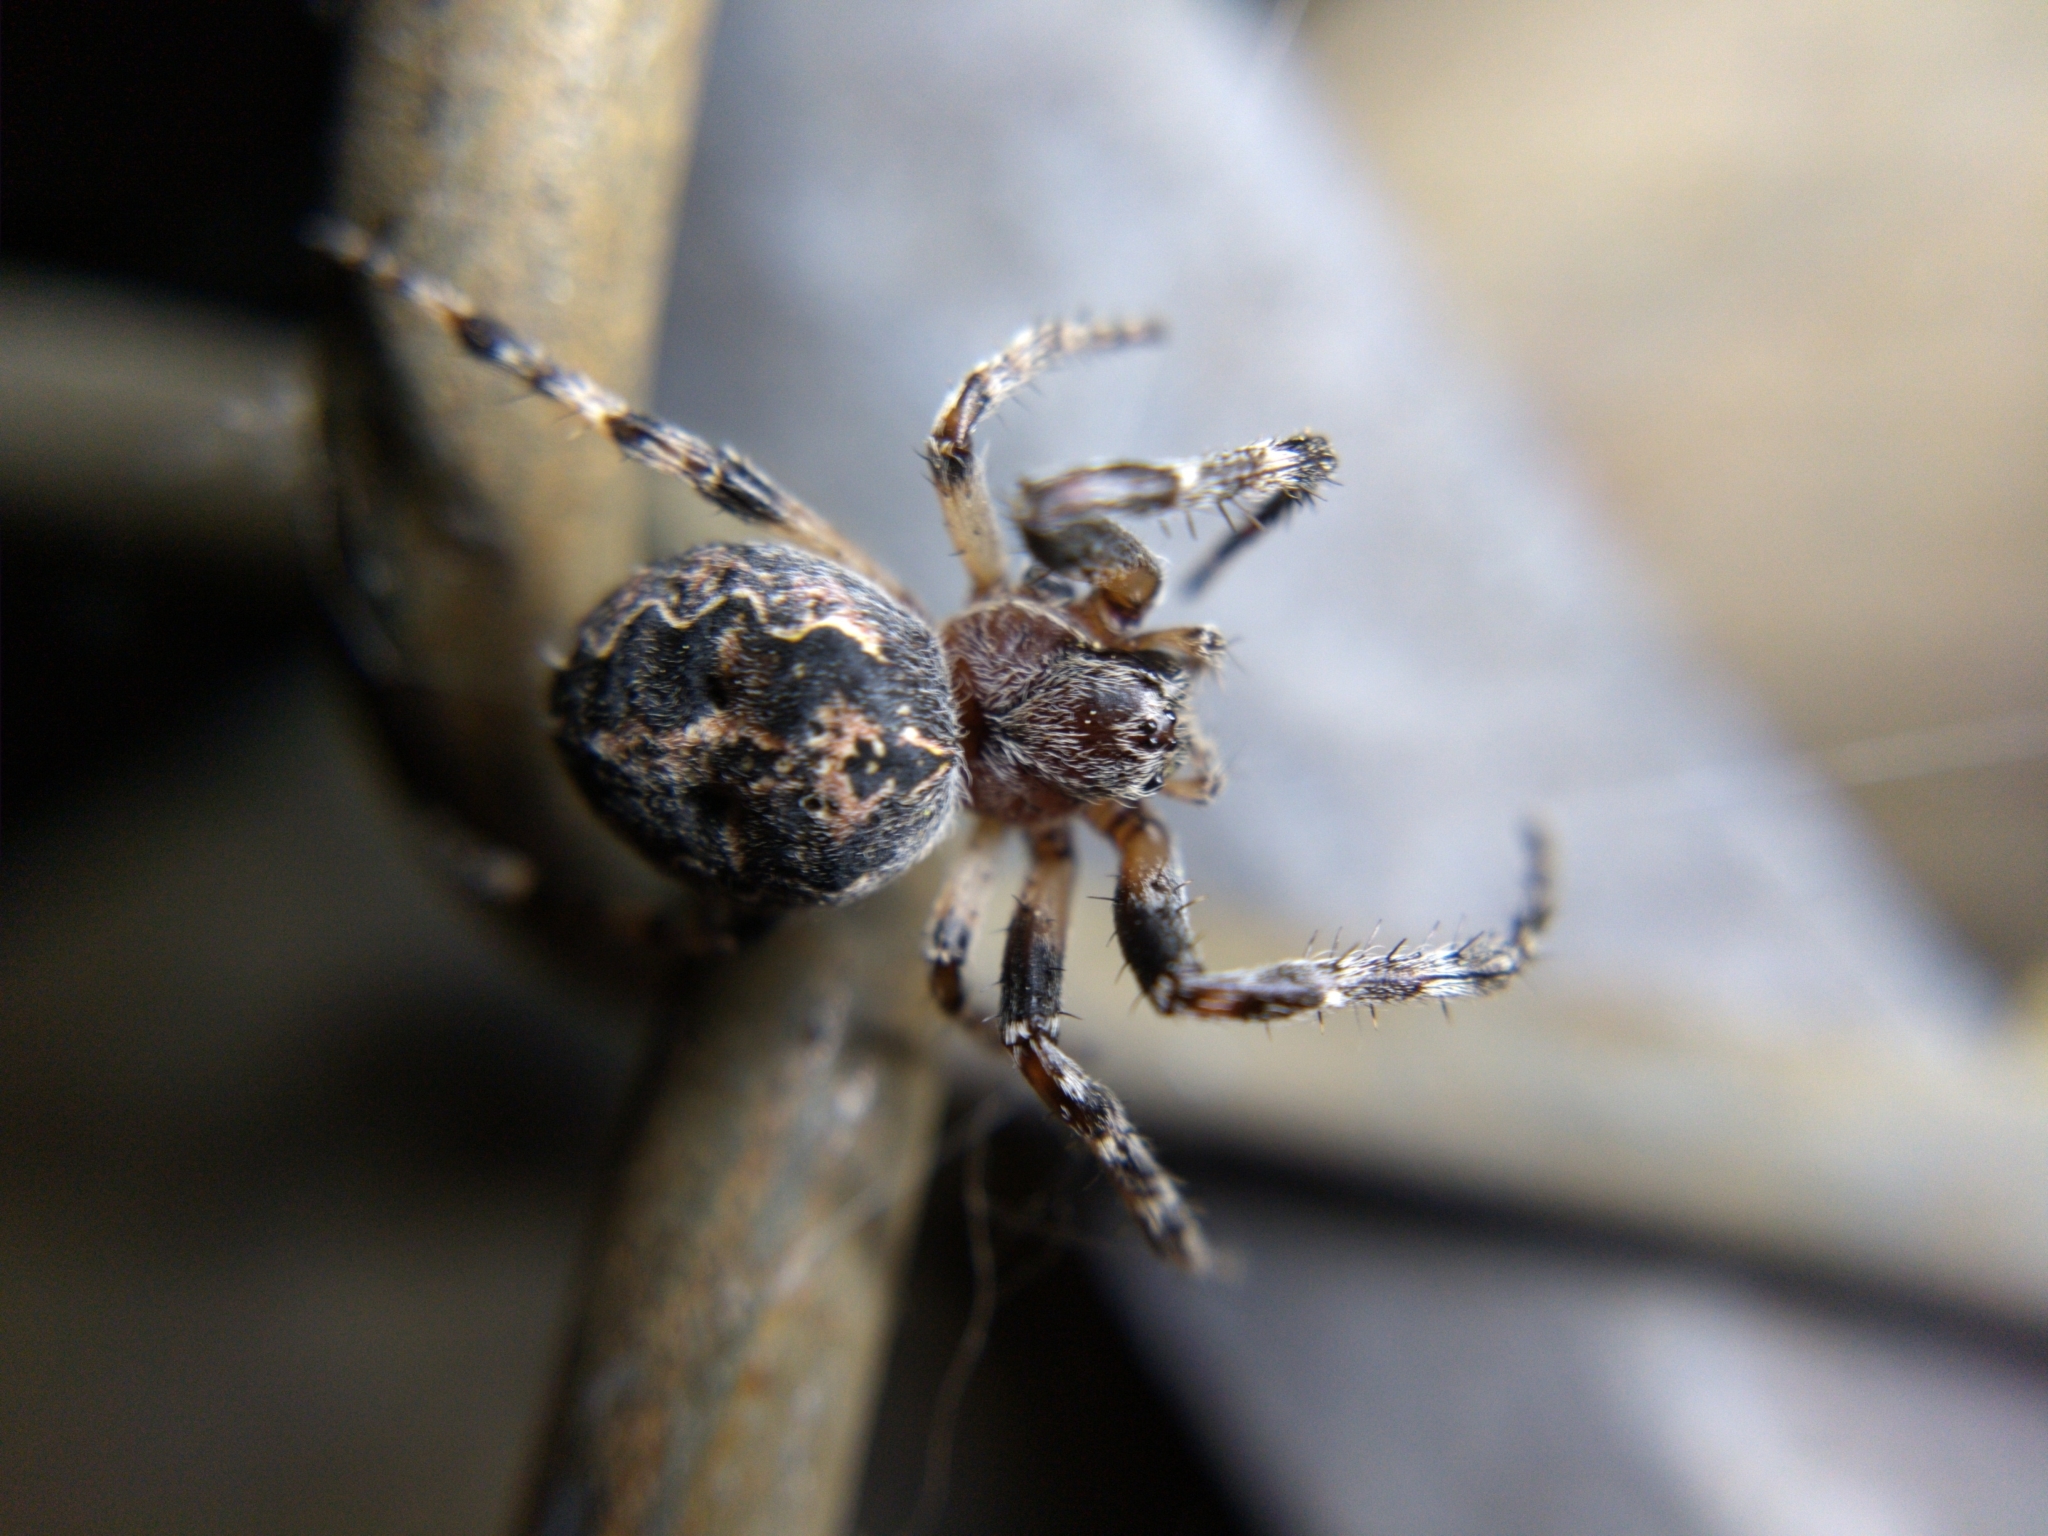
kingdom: Animalia
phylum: Arthropoda
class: Arachnida
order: Araneae
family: Araneidae
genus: Larinioides
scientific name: Larinioides patagiatus
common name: Ornamental orbweaver
